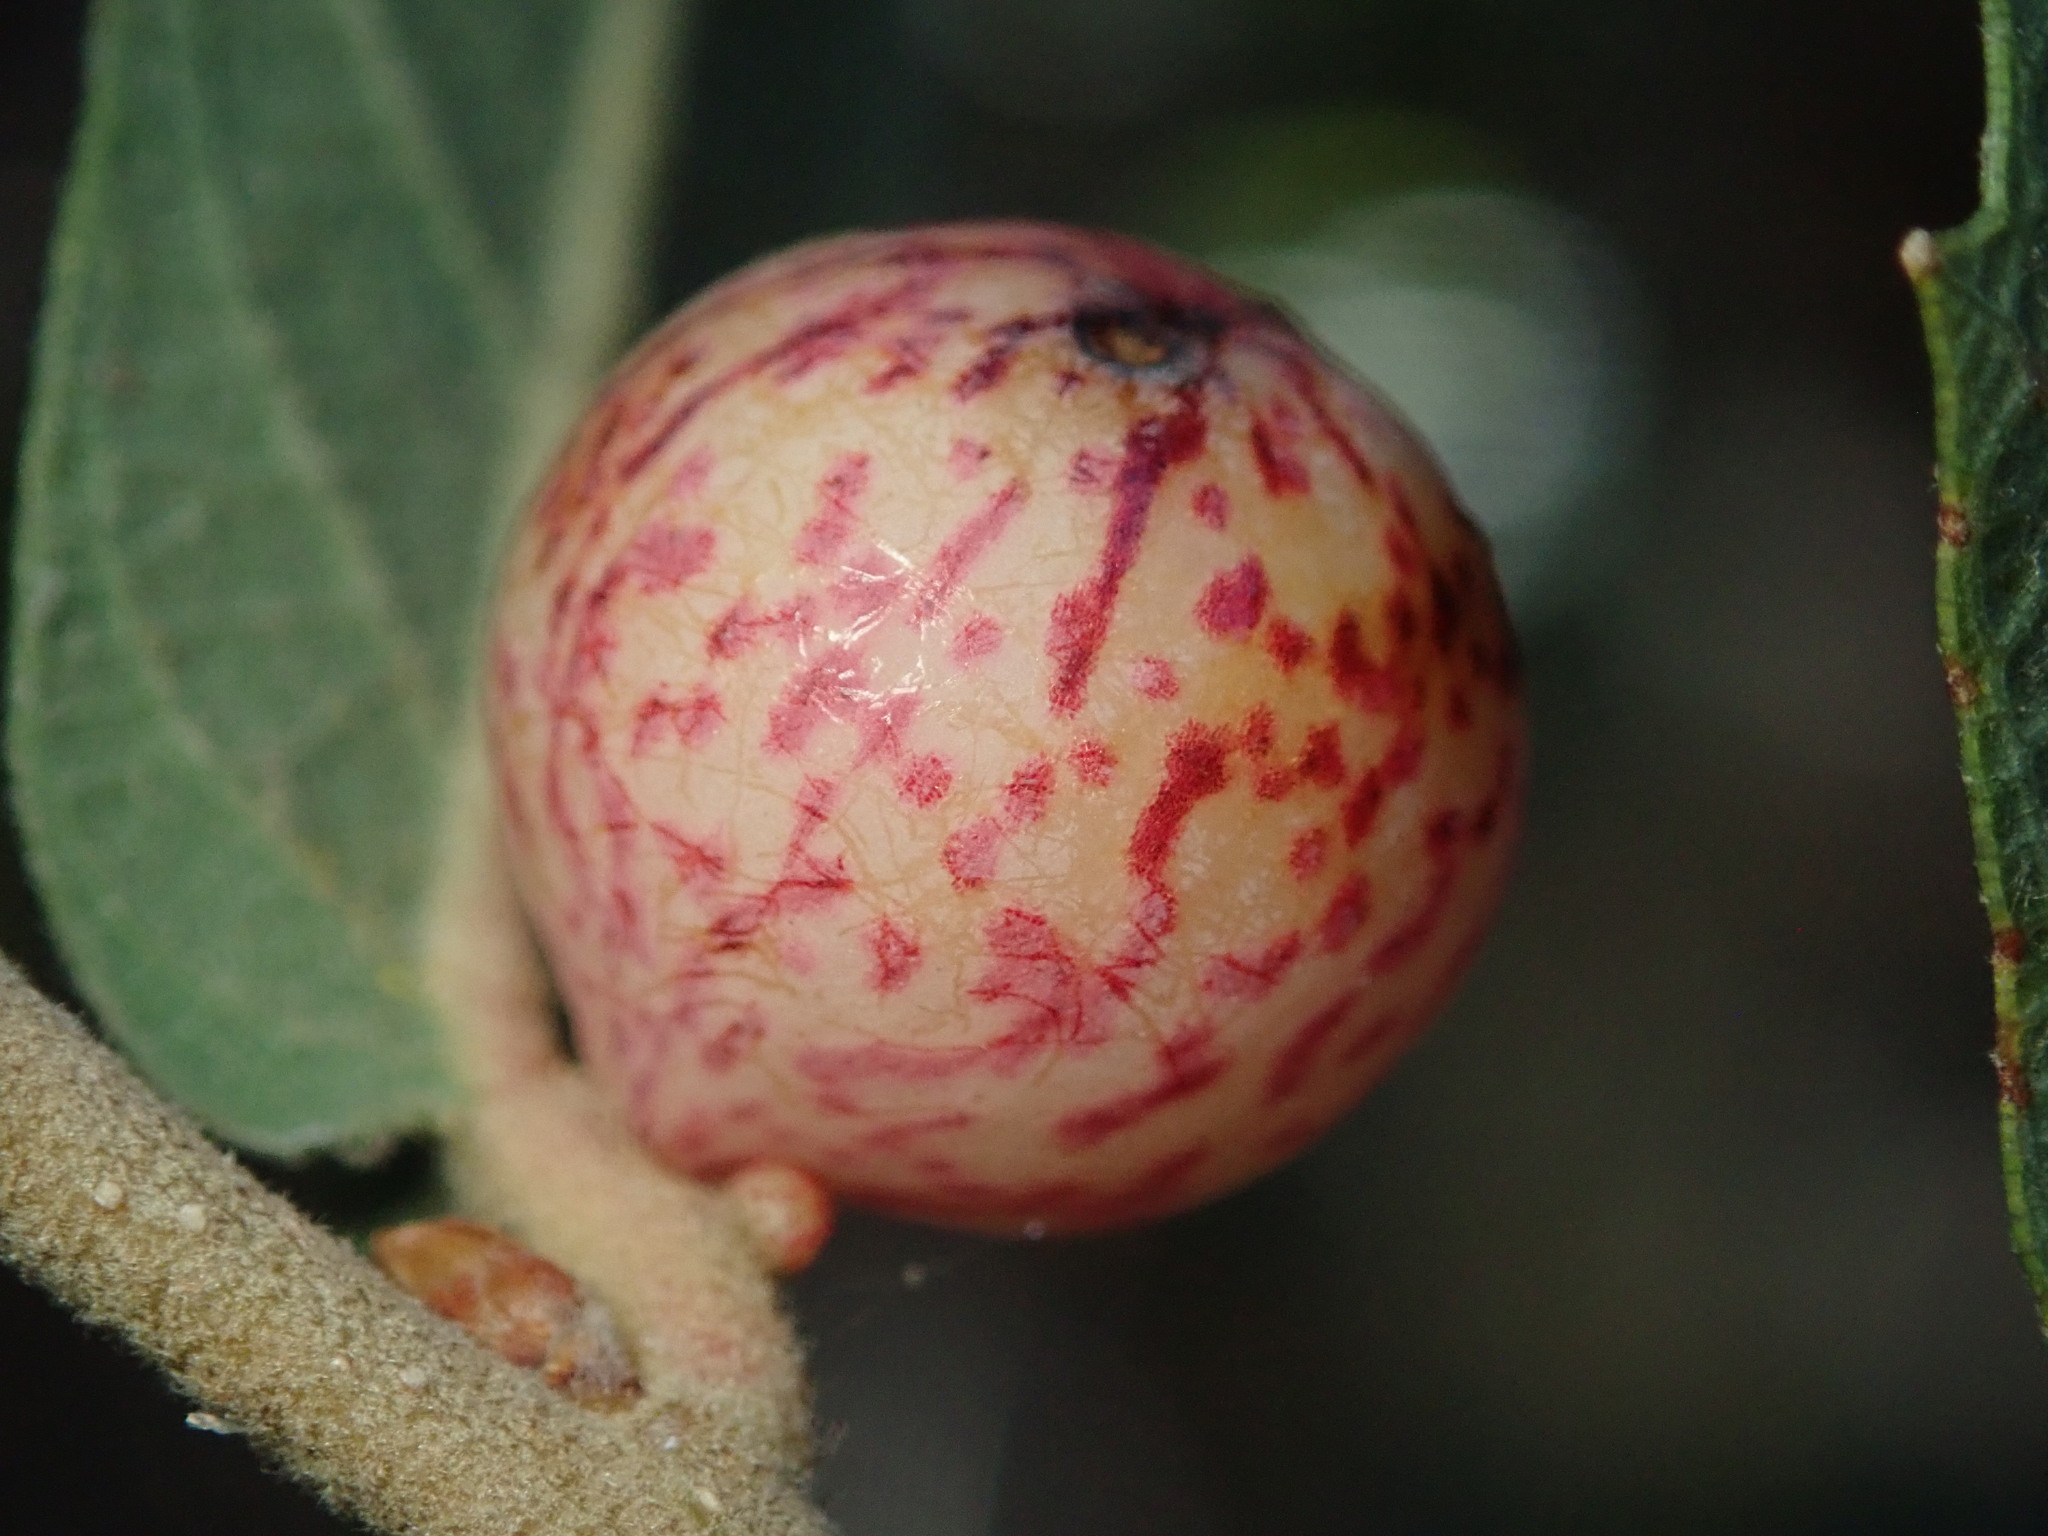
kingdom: Animalia
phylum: Arthropoda
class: Insecta
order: Hymenoptera
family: Cynipidae
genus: Atrusca
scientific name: Atrusca
